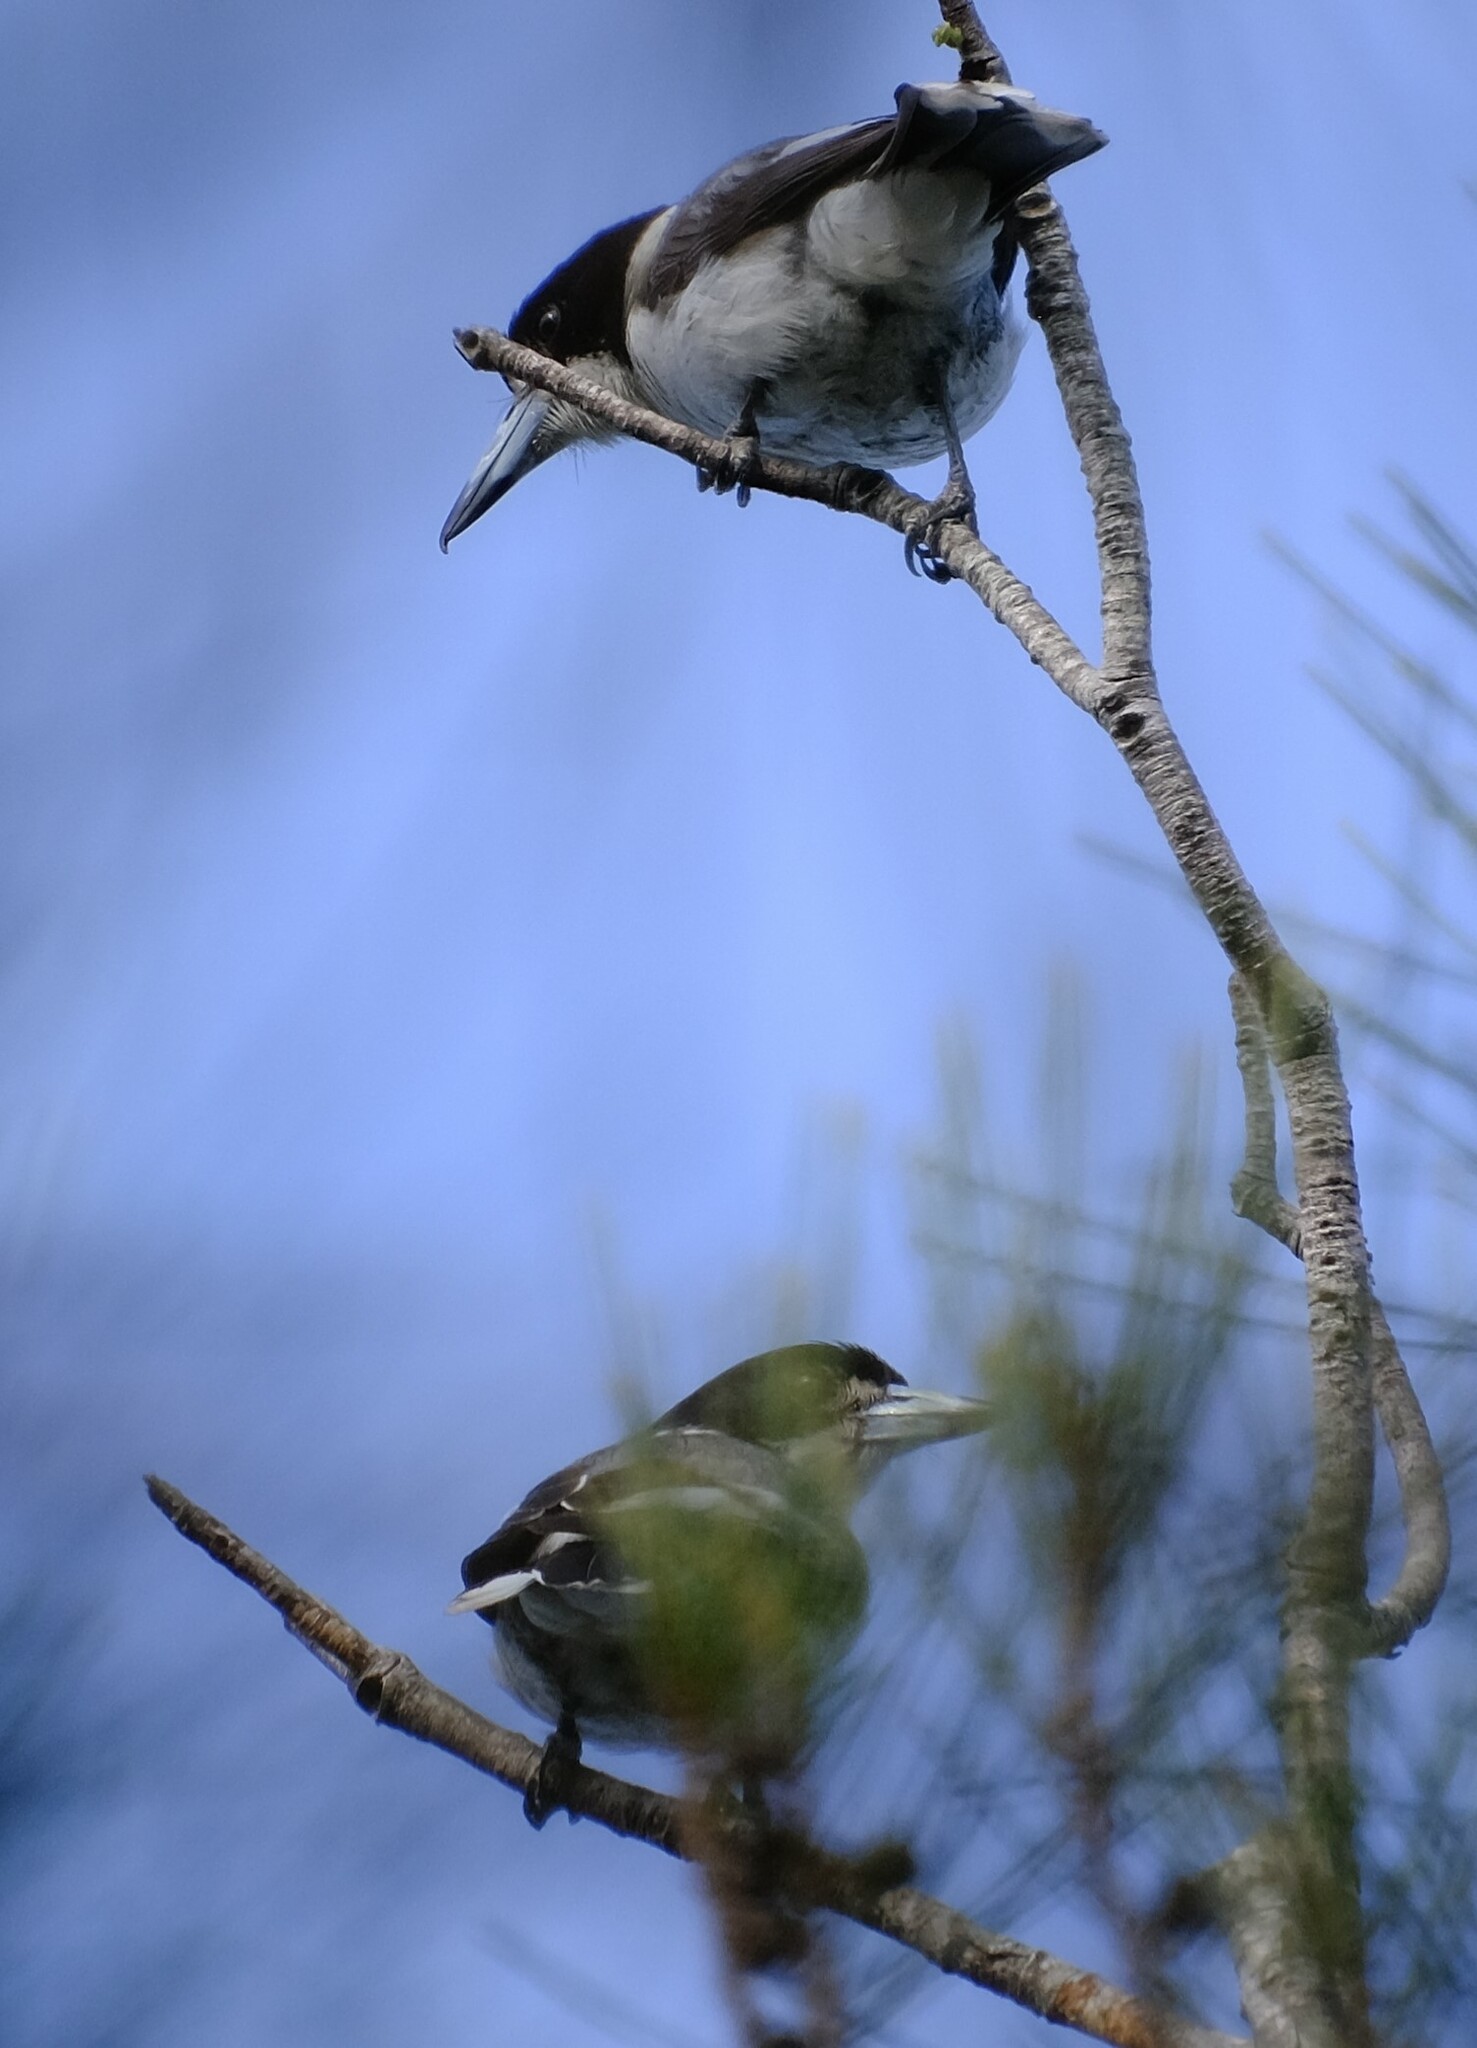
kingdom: Animalia
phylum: Chordata
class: Aves
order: Passeriformes
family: Cracticidae
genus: Cracticus
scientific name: Cracticus torquatus
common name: Grey butcherbird
